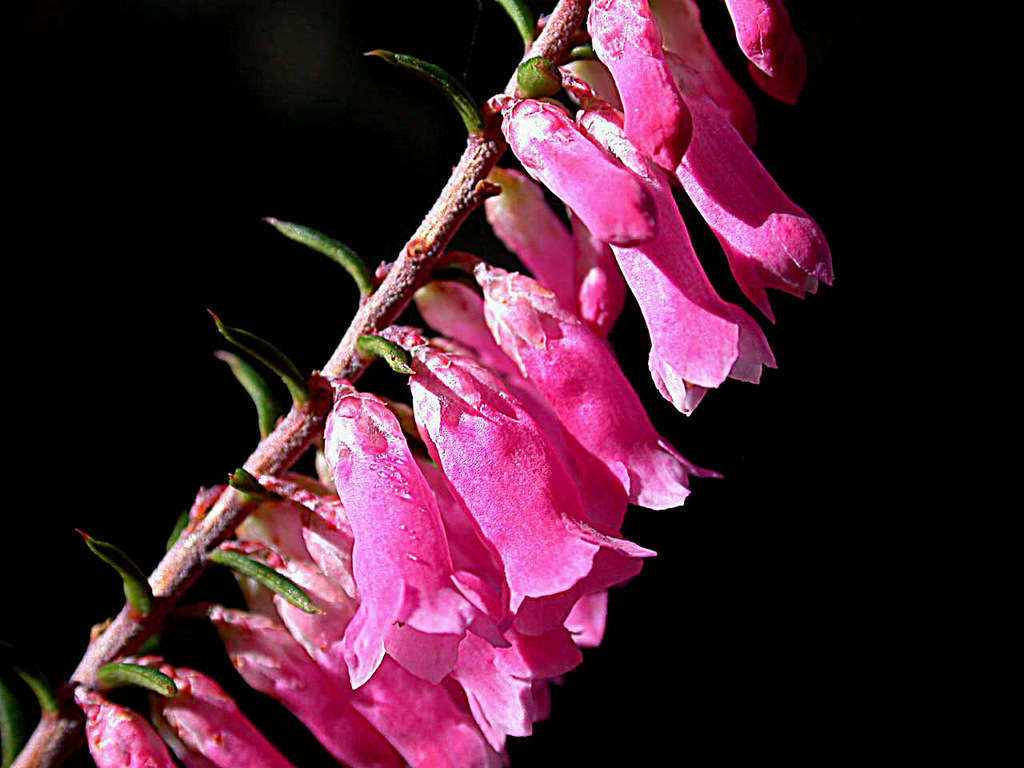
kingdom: Plantae
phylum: Tracheophyta
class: Magnoliopsida
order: Ericales
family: Ericaceae
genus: Epacris
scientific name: Epacris impressa
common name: Common-heath
